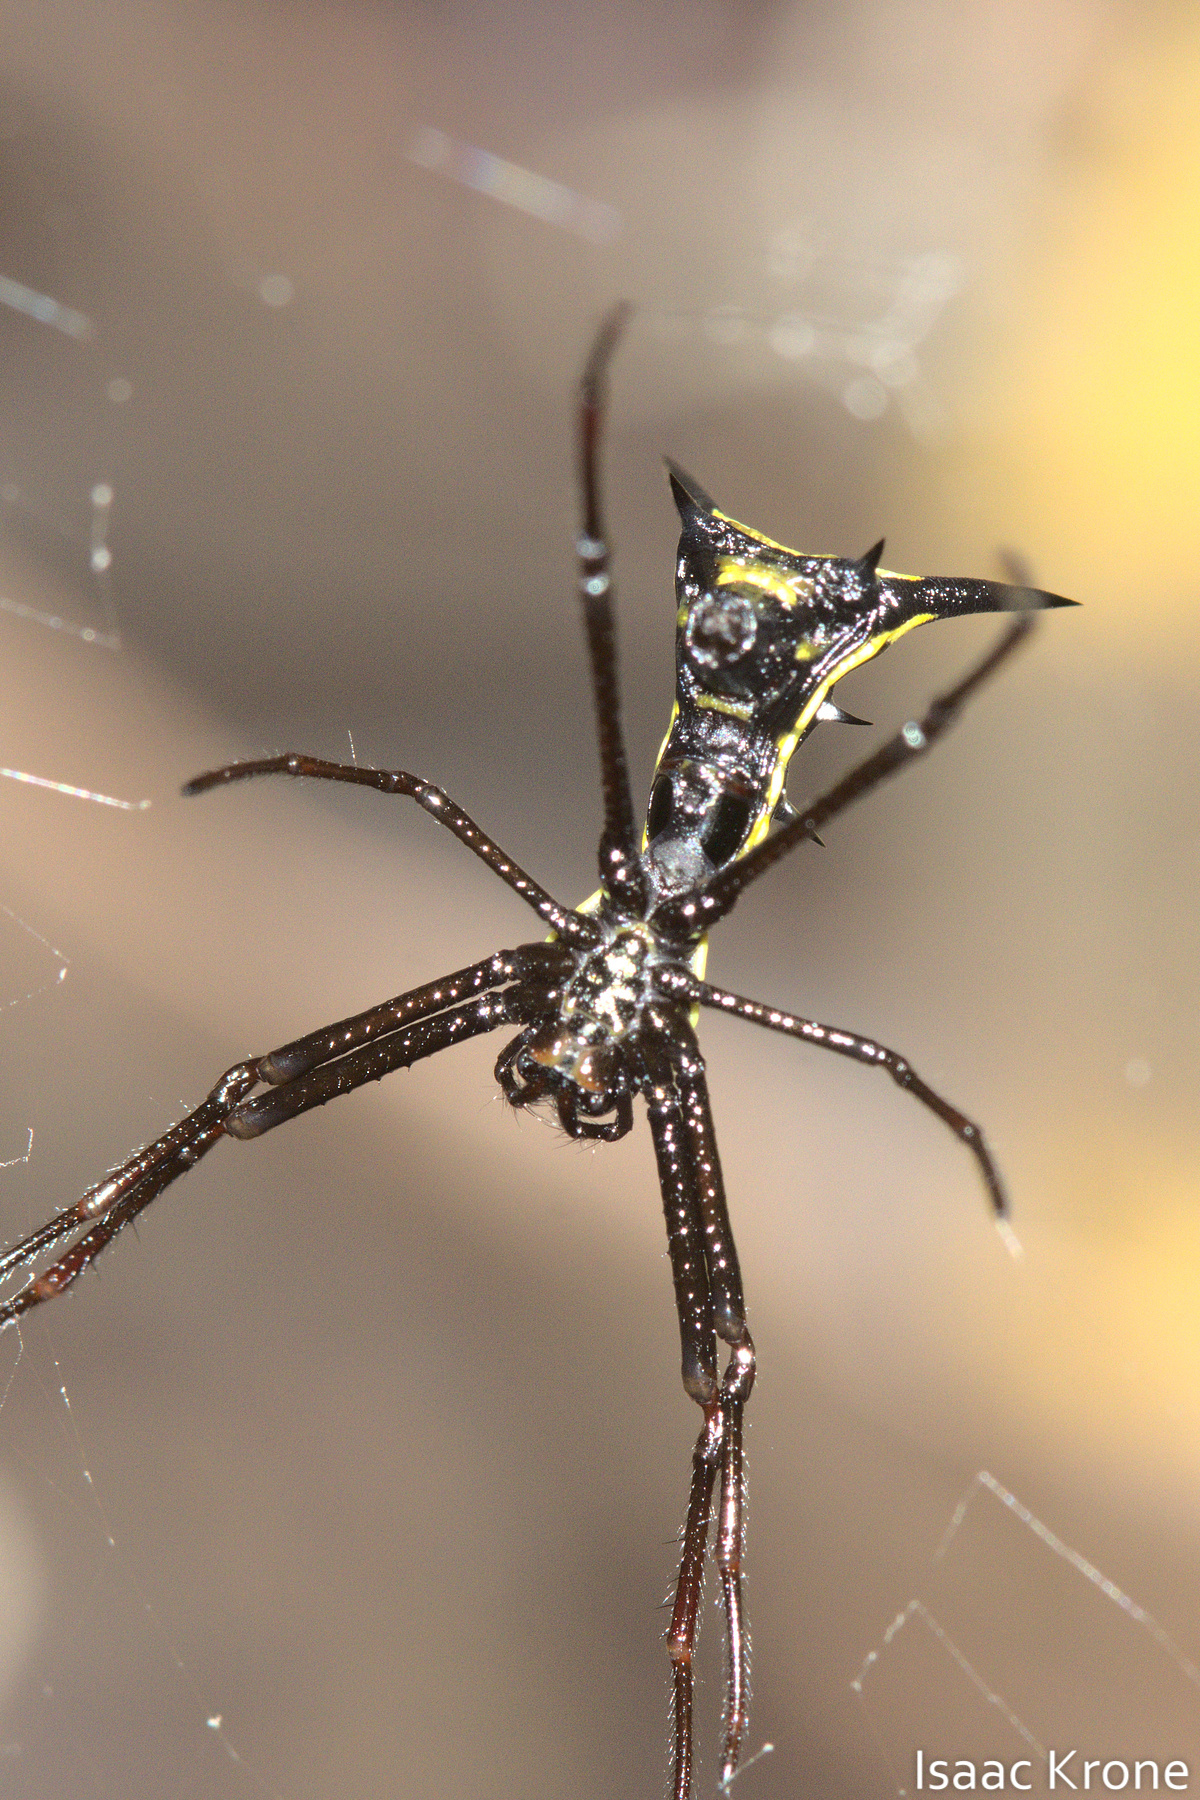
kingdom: Animalia
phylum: Arthropoda
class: Arachnida
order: Araneae
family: Araneidae
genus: Micrathena
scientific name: Micrathena schreibersi
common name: Orb weavers
